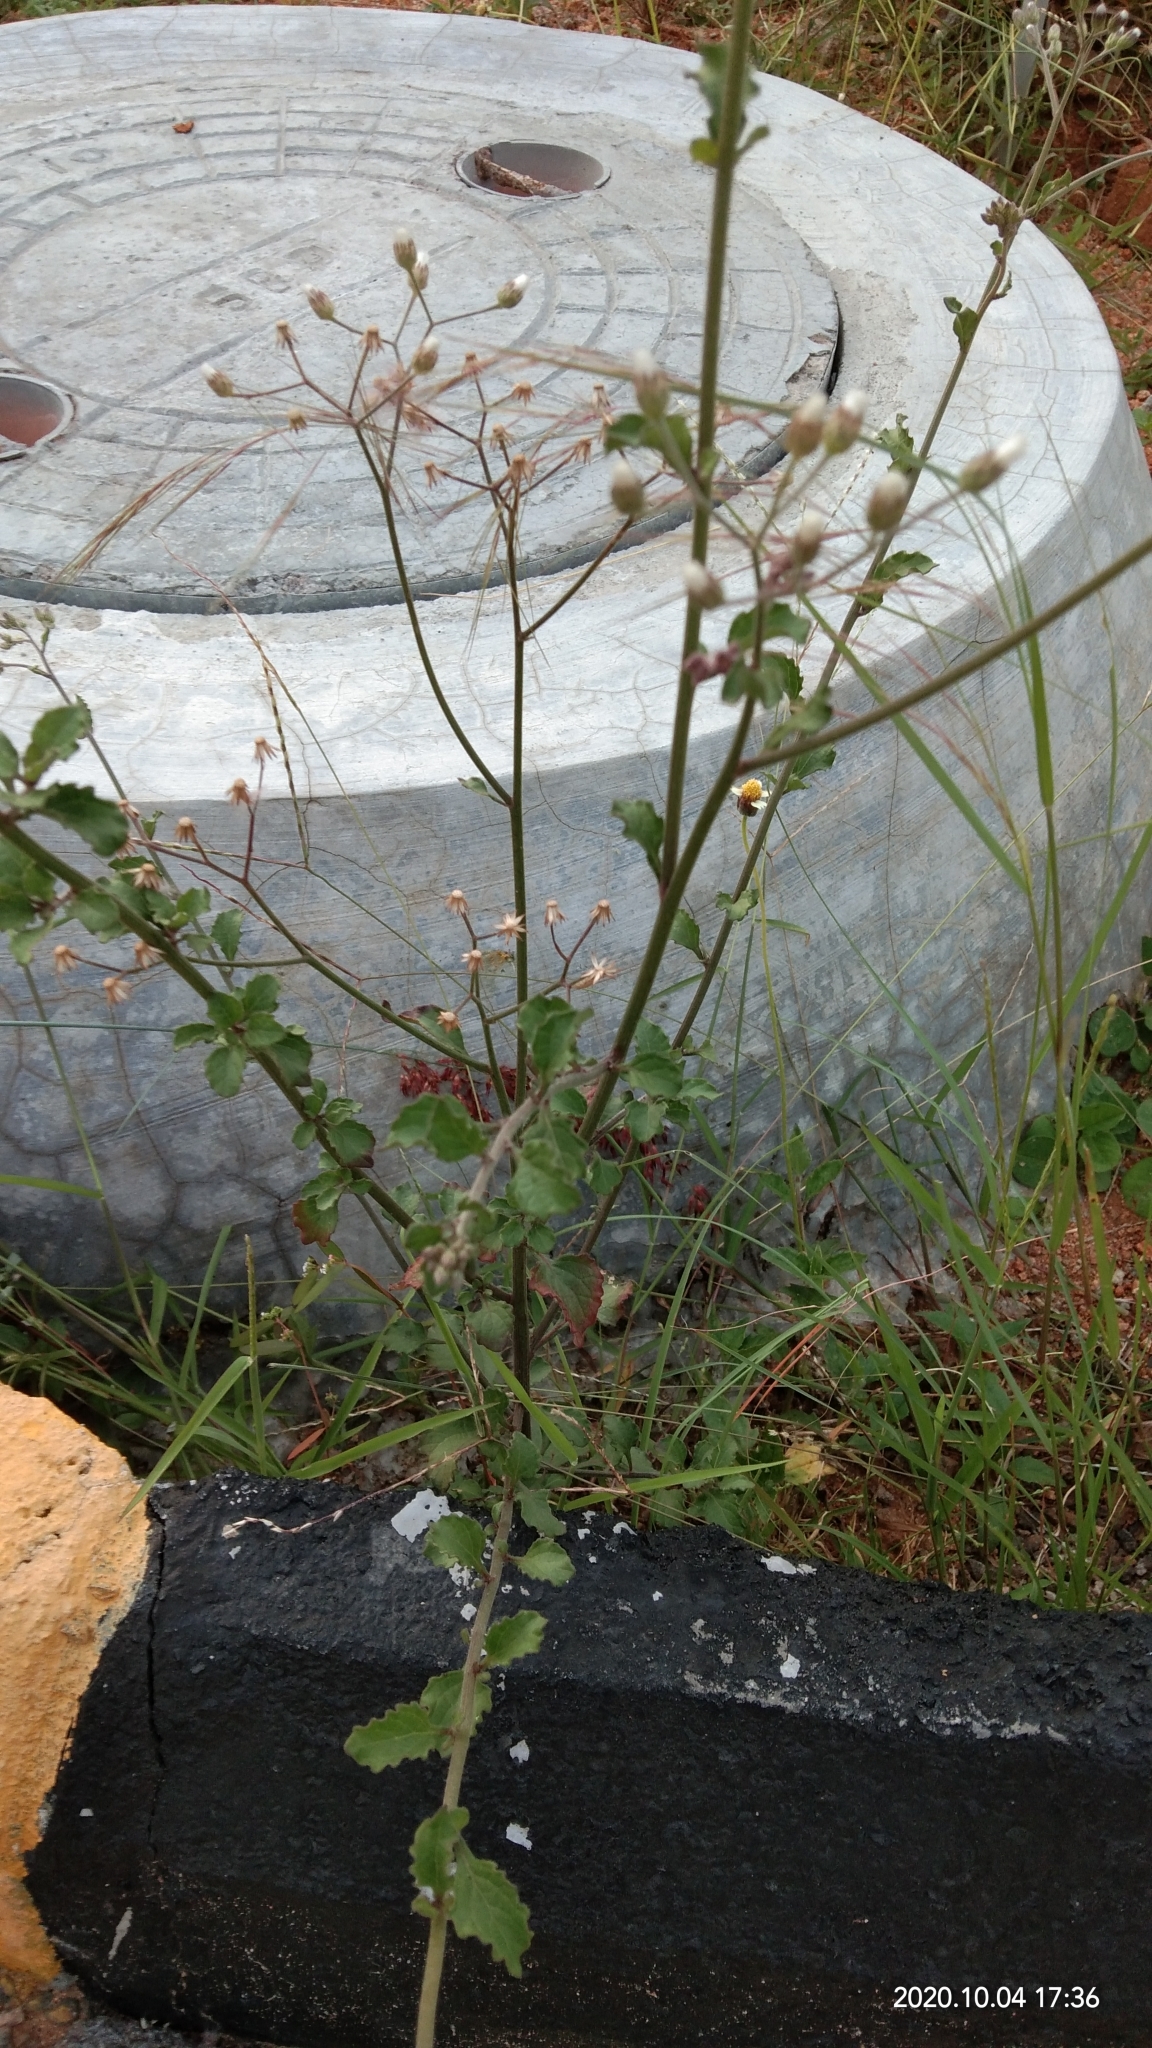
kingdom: Plantae
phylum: Tracheophyta
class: Magnoliopsida
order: Asterales
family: Asteraceae
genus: Cyanthillium
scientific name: Cyanthillium cinereum
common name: Little ironweed
